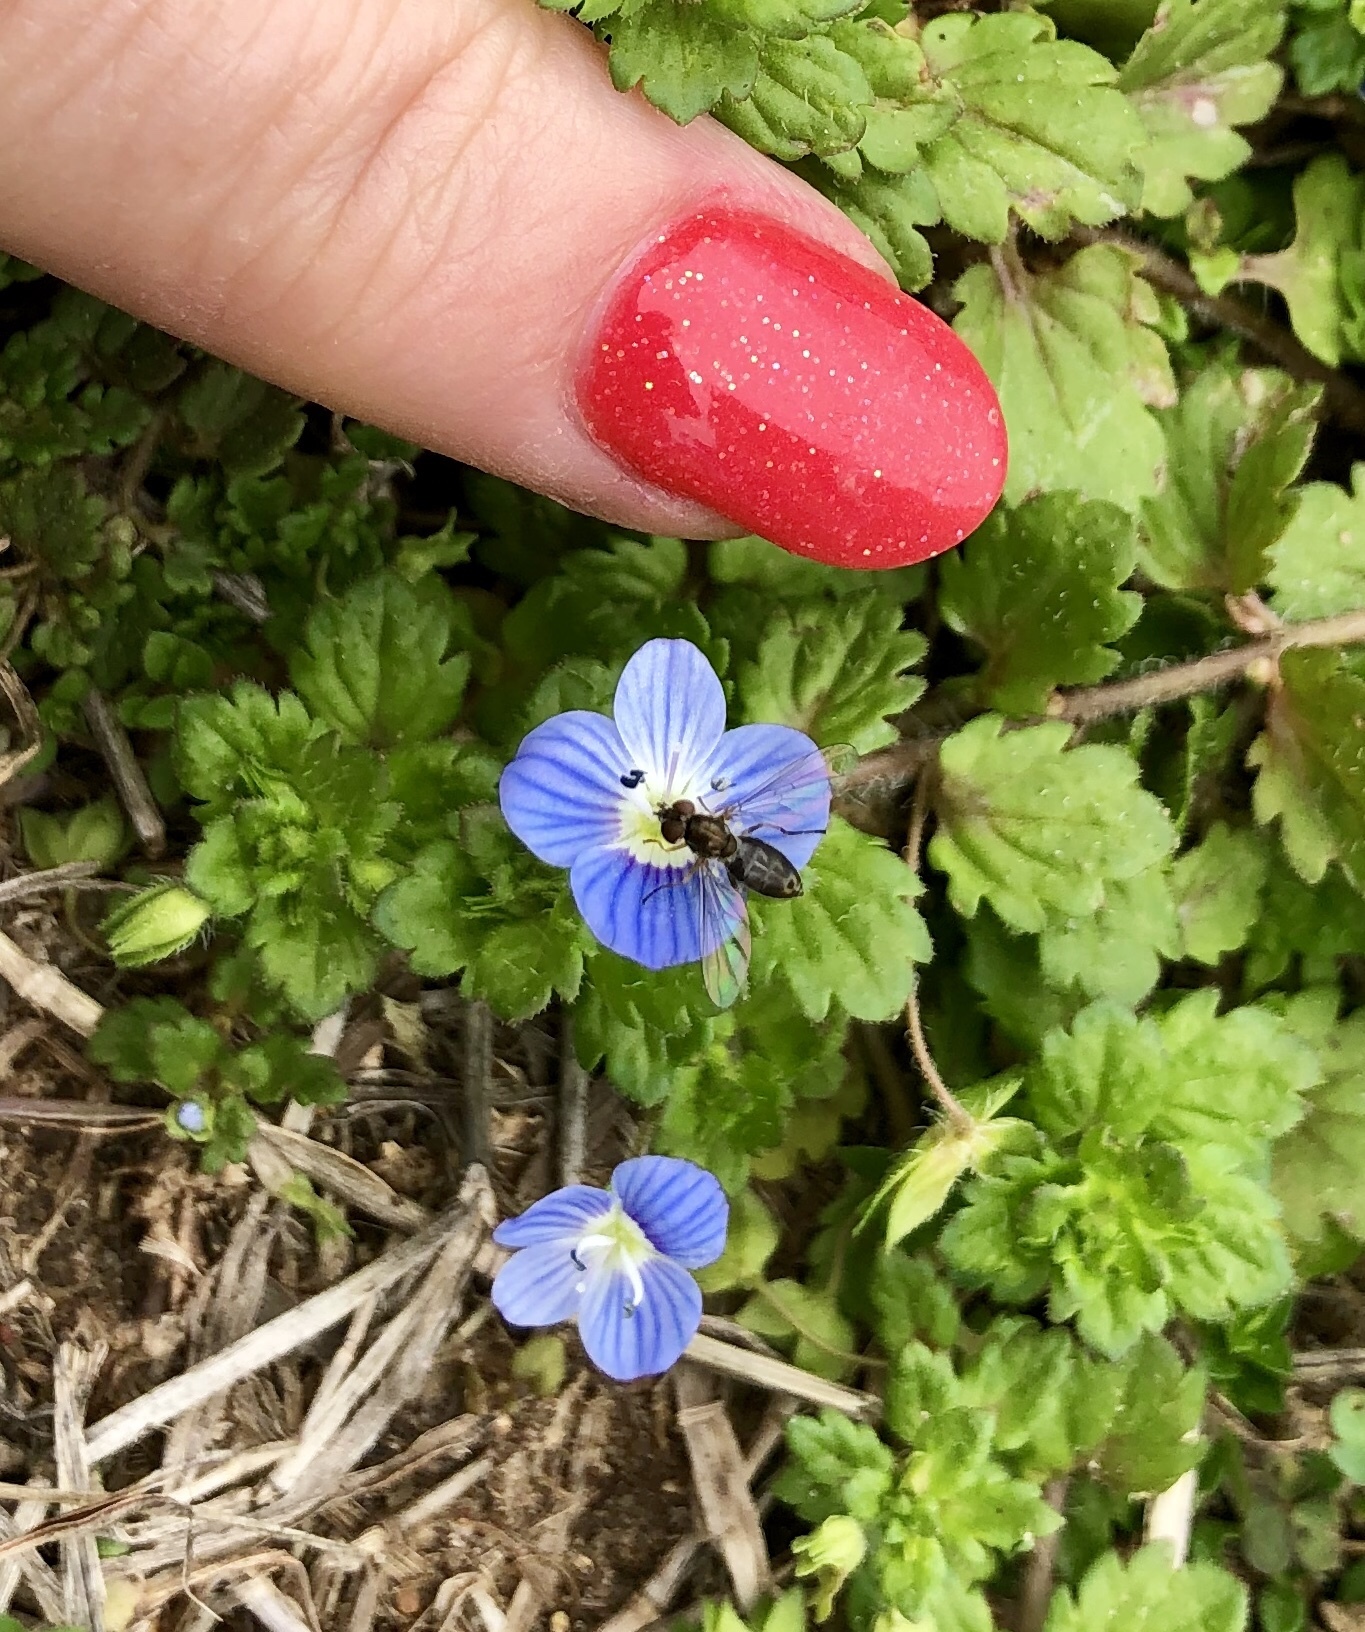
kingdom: Plantae
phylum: Tracheophyta
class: Magnoliopsida
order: Lamiales
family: Plantaginaceae
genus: Veronica
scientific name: Veronica persica
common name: Common field-speedwell
